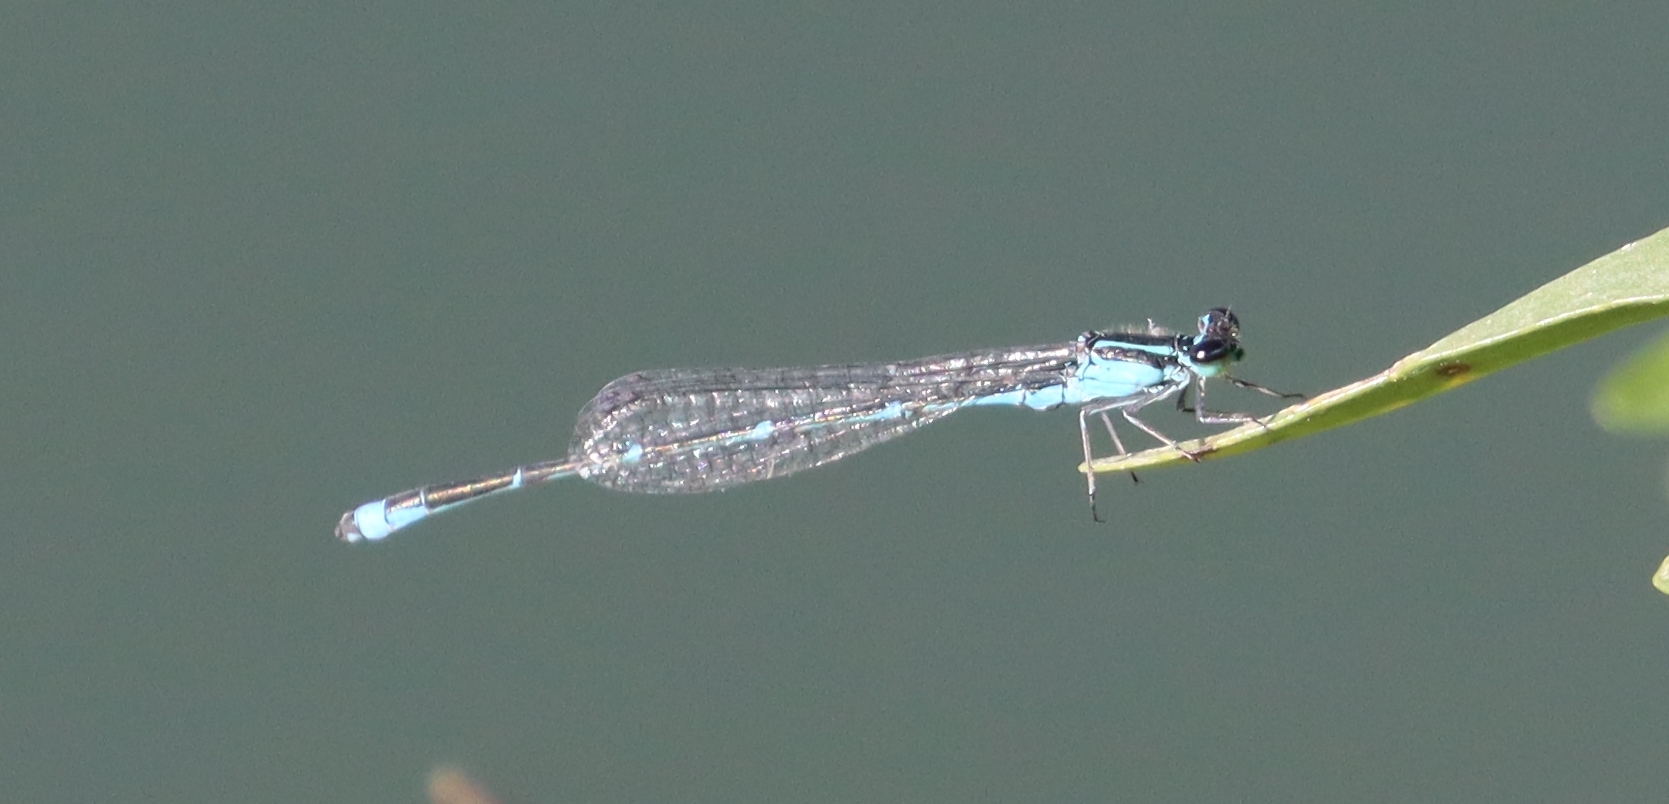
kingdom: Animalia
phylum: Arthropoda
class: Insecta
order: Odonata
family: Coenagrionidae
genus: Enallagma
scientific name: Enallagma exsulans
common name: Stream bluet
